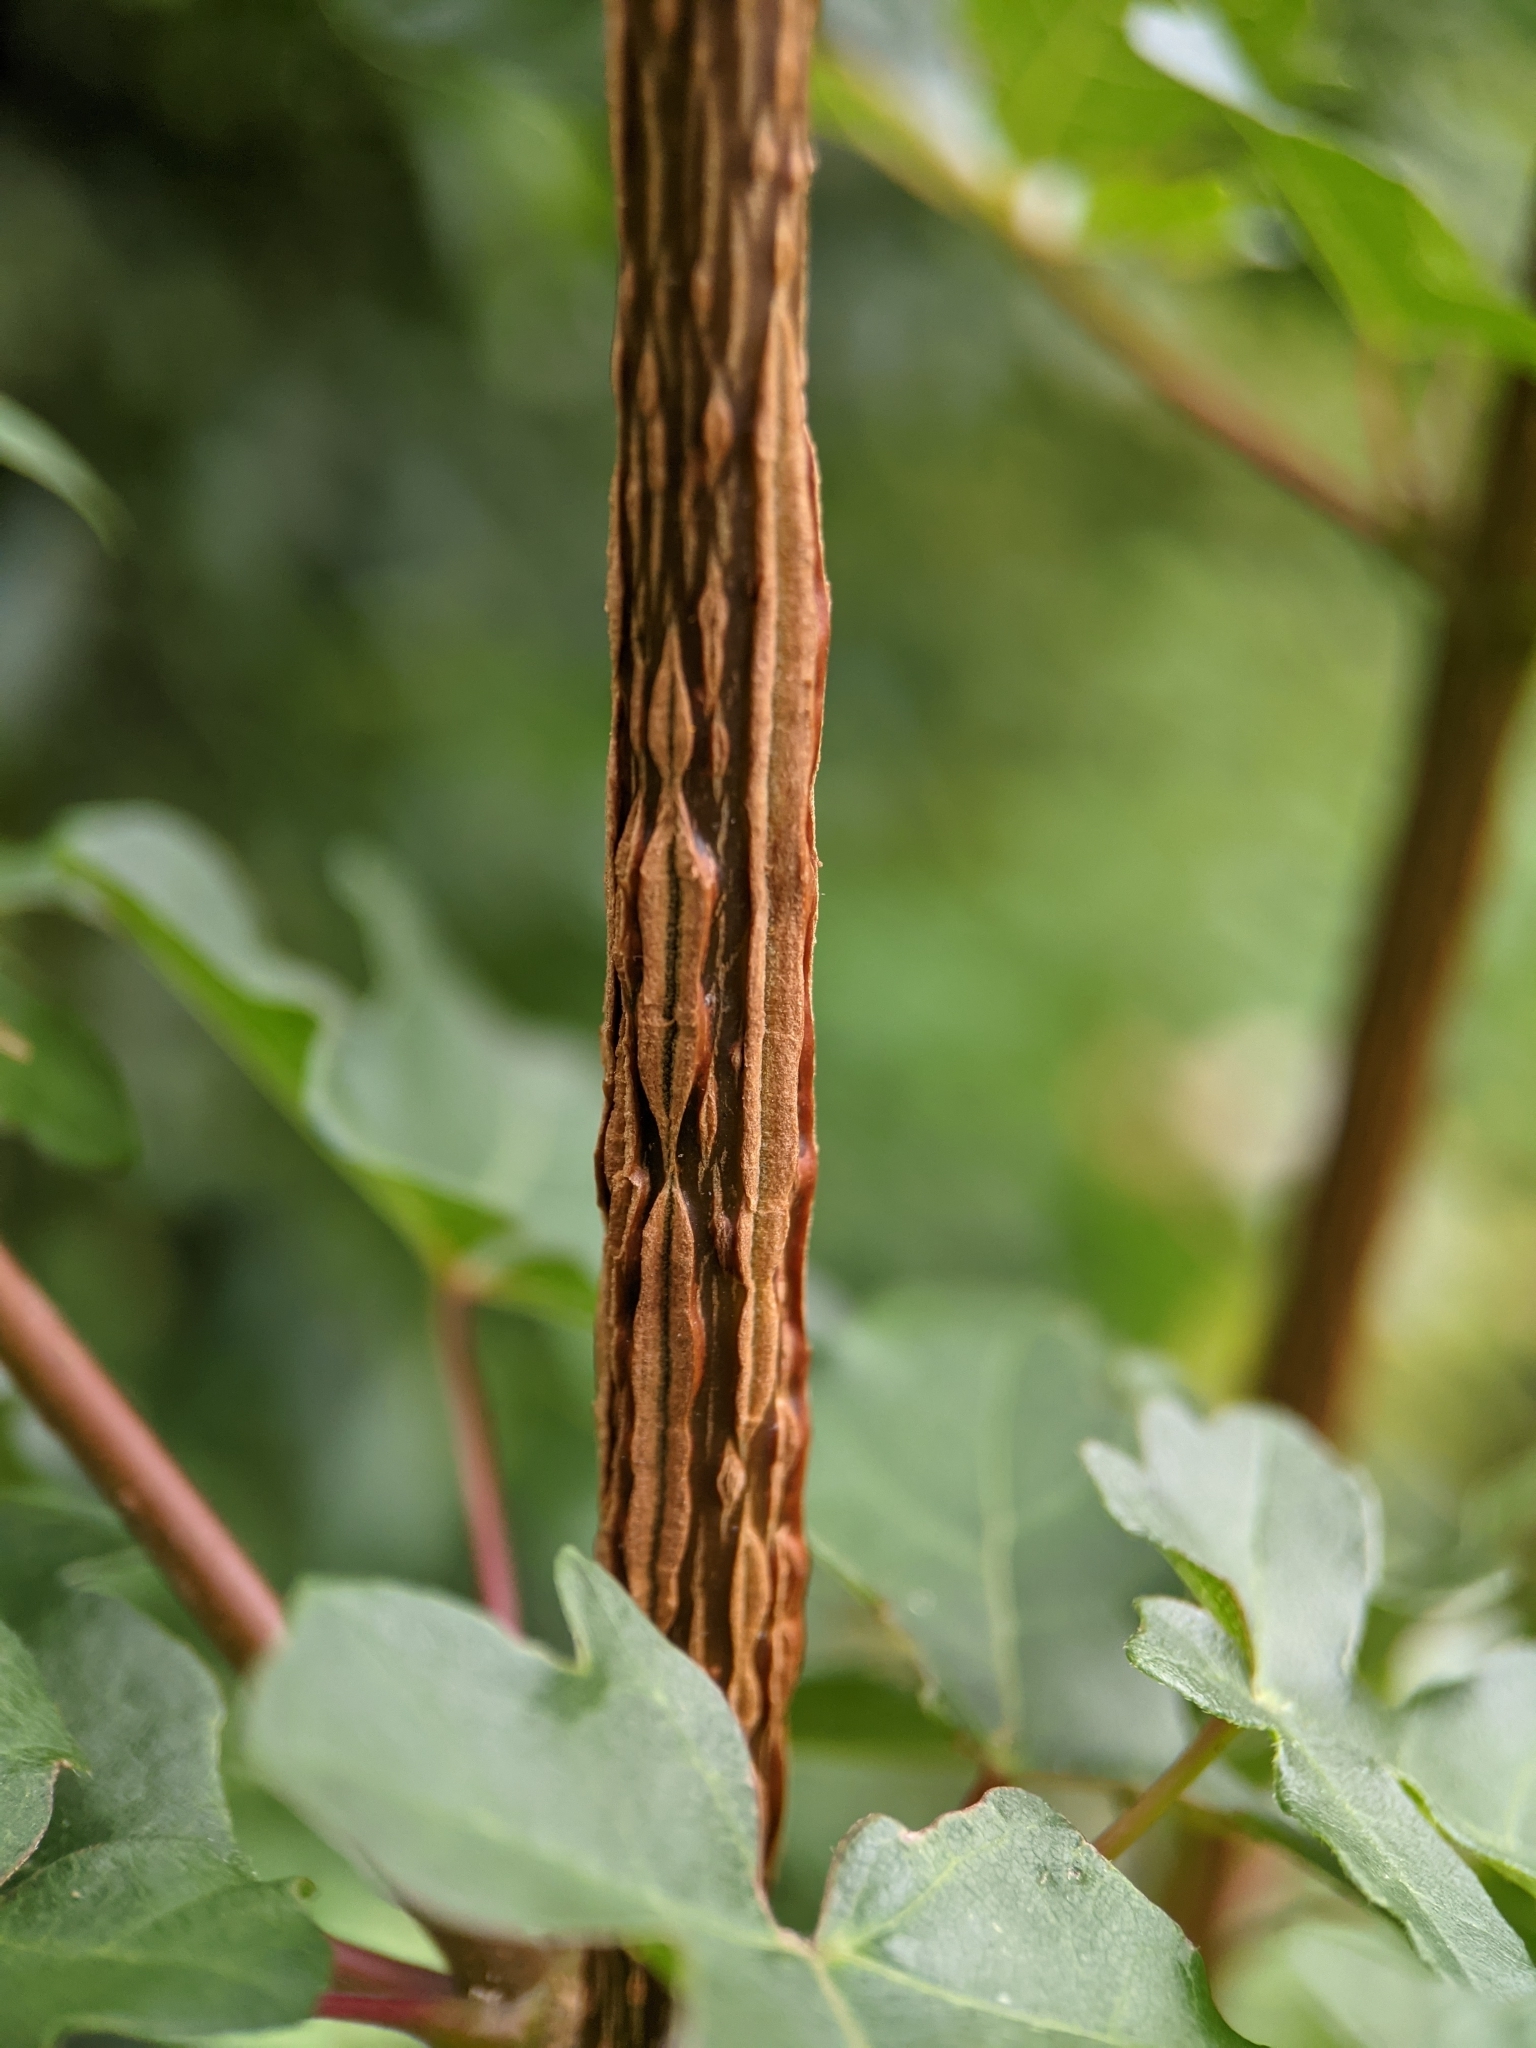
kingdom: Plantae
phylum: Tracheophyta
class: Magnoliopsida
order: Sapindales
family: Sapindaceae
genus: Acer
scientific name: Acer campestre
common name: Field maple
